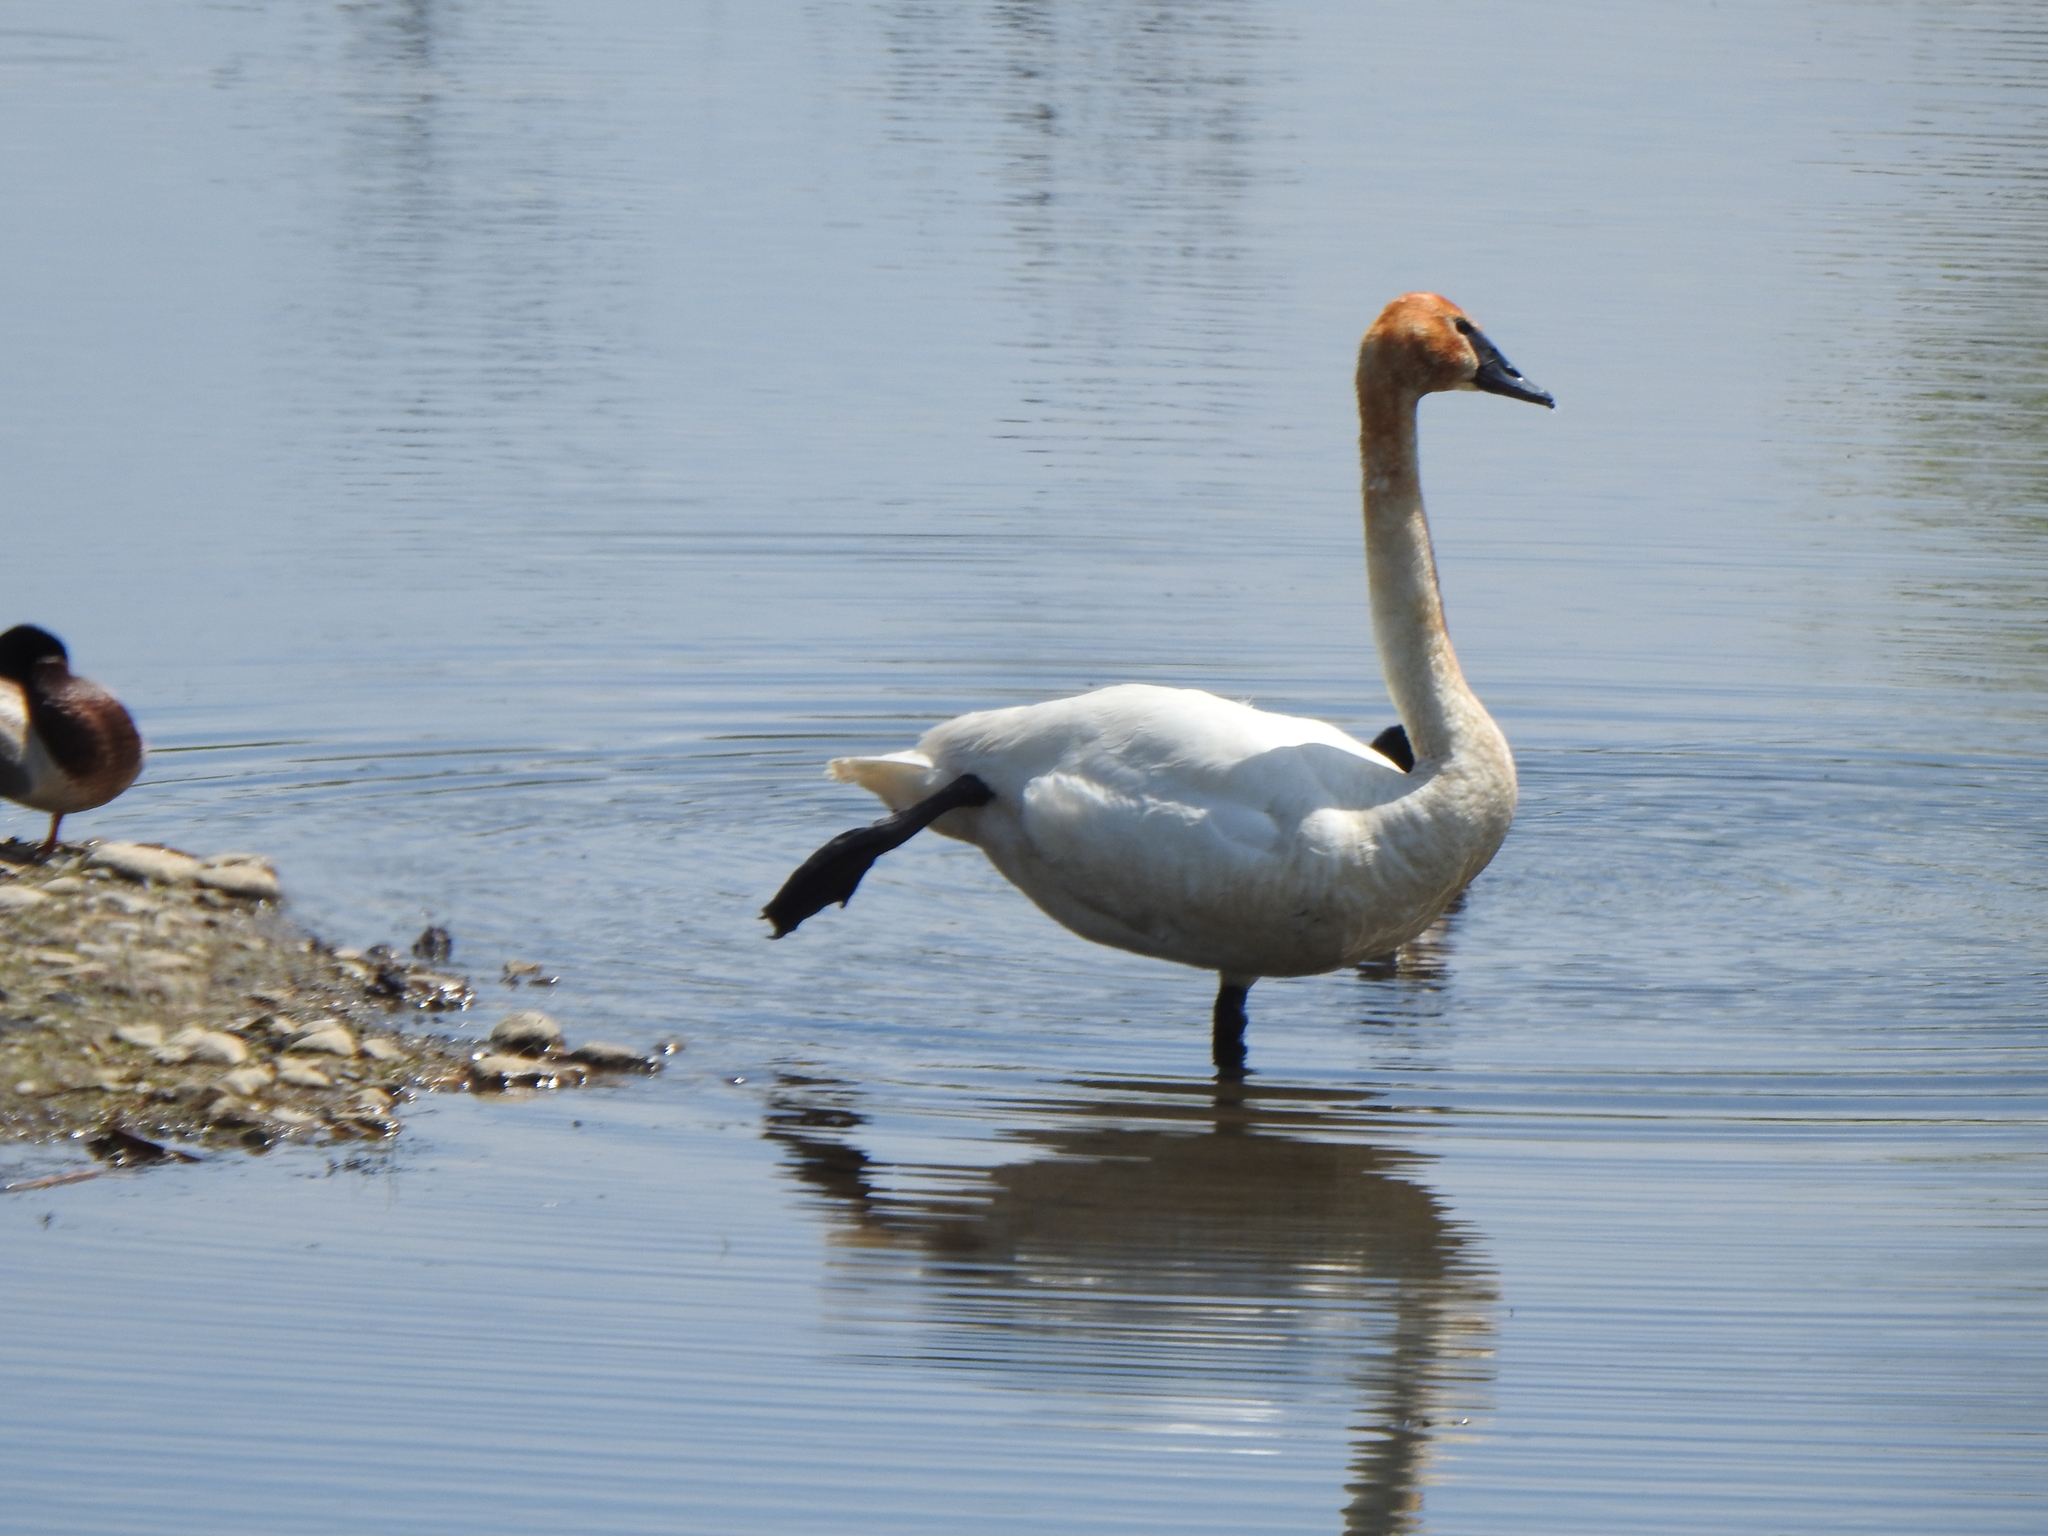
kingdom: Animalia
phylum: Chordata
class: Aves
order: Anseriformes
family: Anatidae
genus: Cygnus
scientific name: Cygnus buccinator
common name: Trumpeter swan
